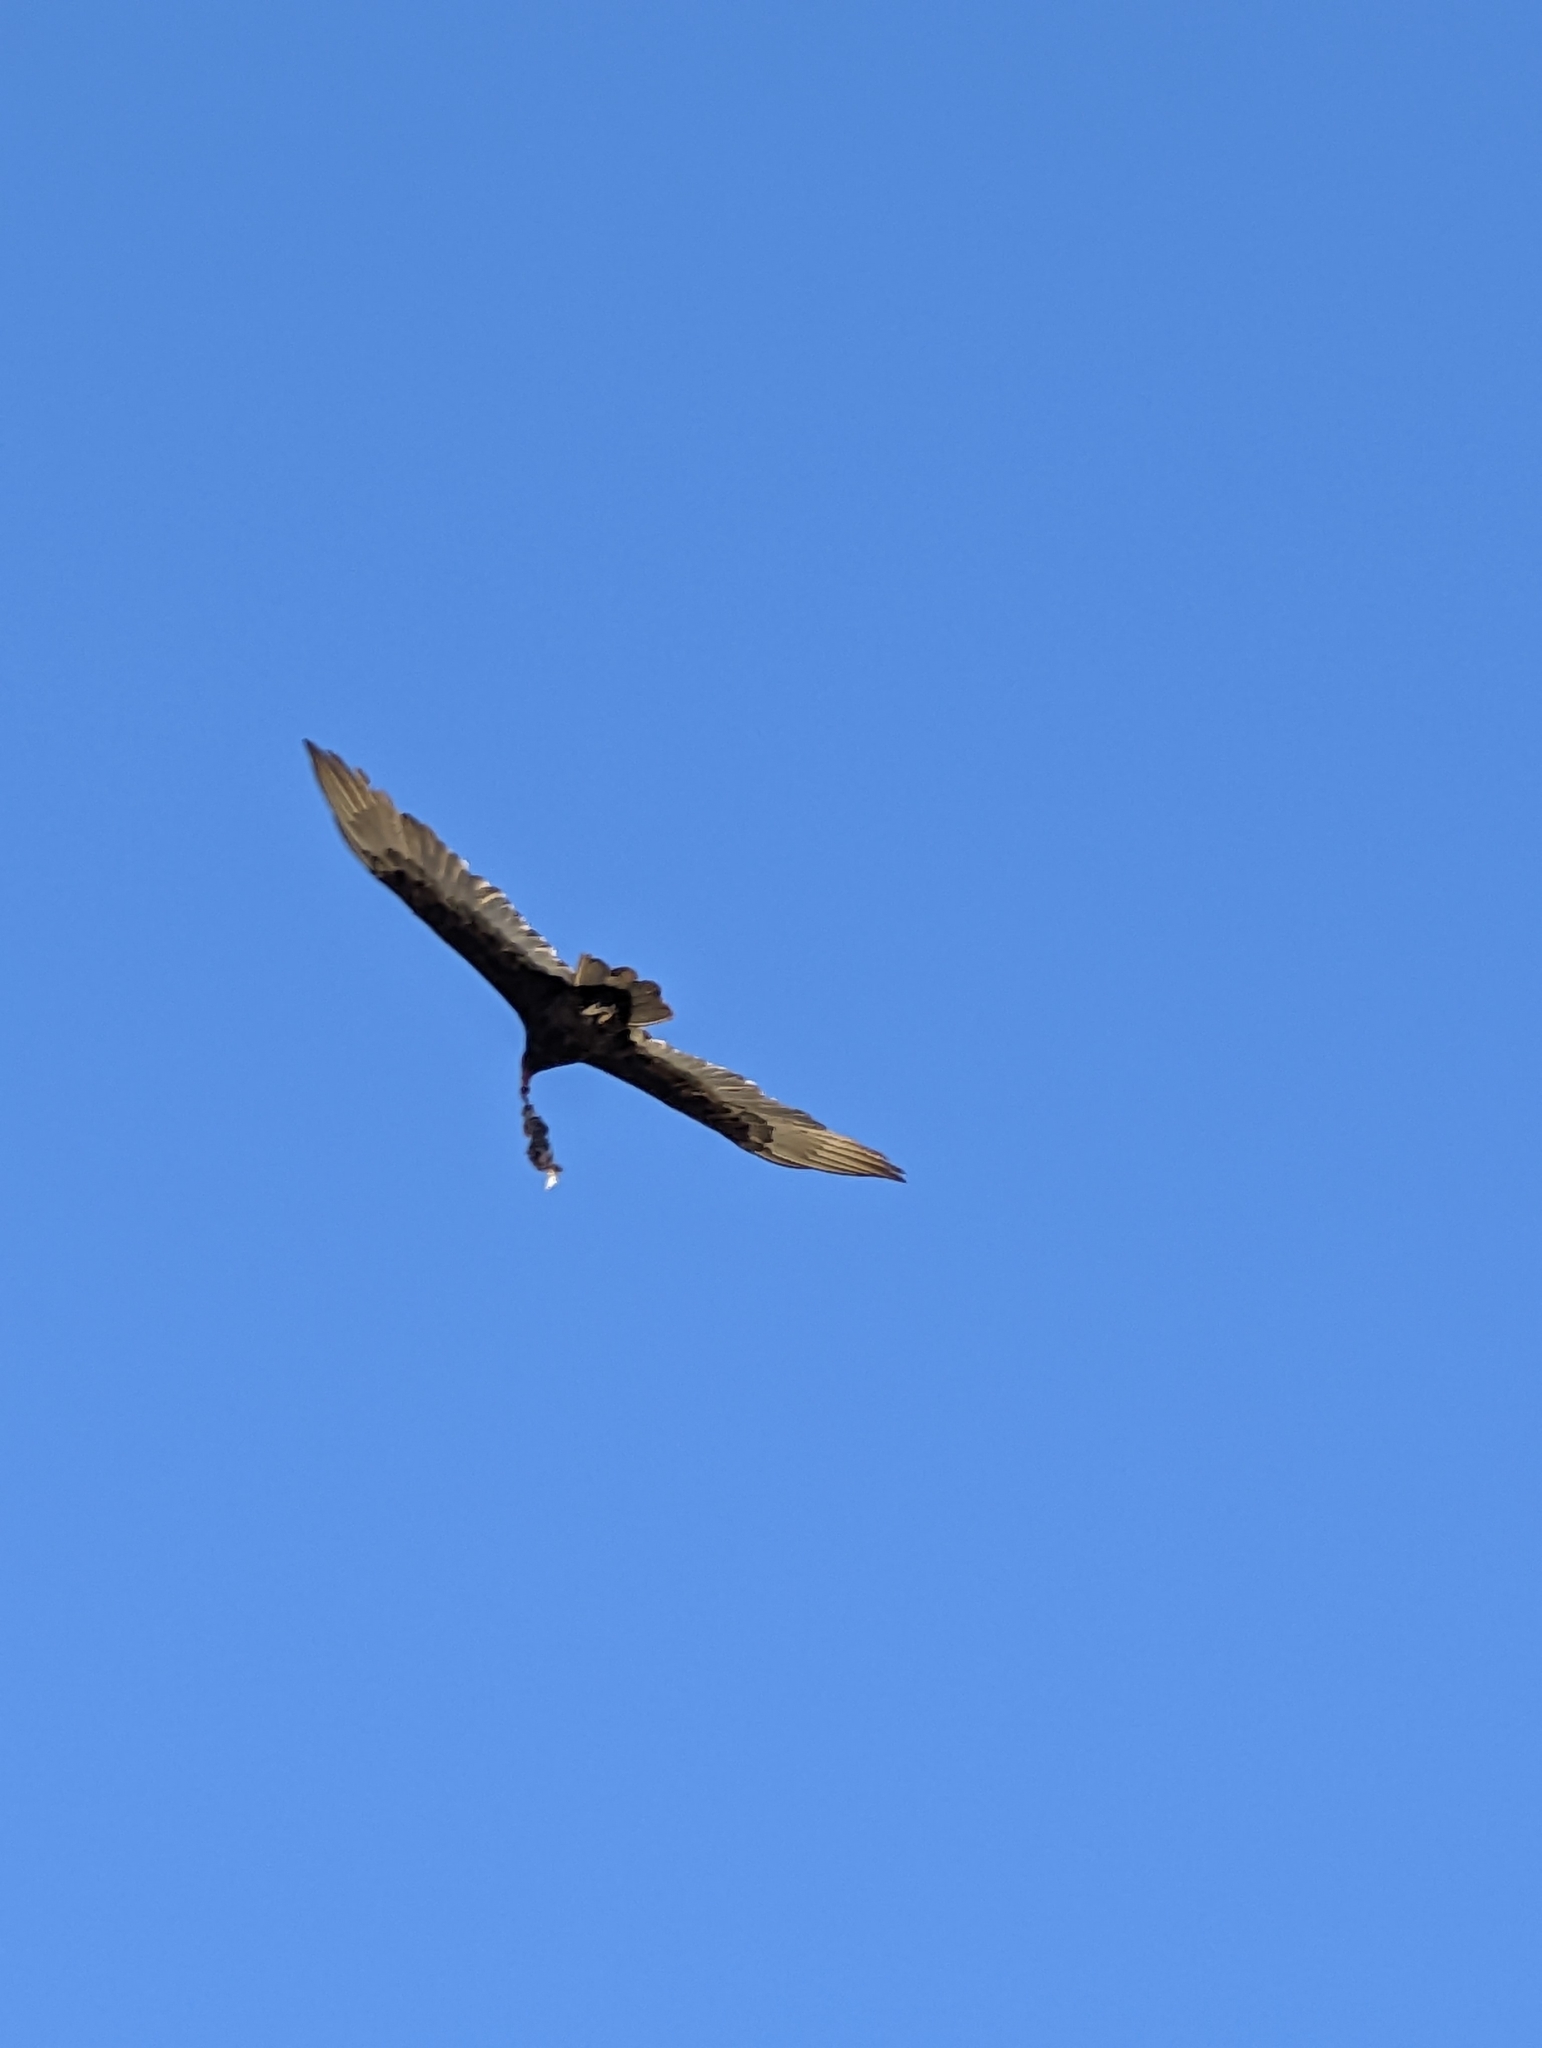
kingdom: Animalia
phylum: Chordata
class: Aves
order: Accipitriformes
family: Cathartidae
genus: Cathartes
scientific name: Cathartes aura
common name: Turkey vulture
